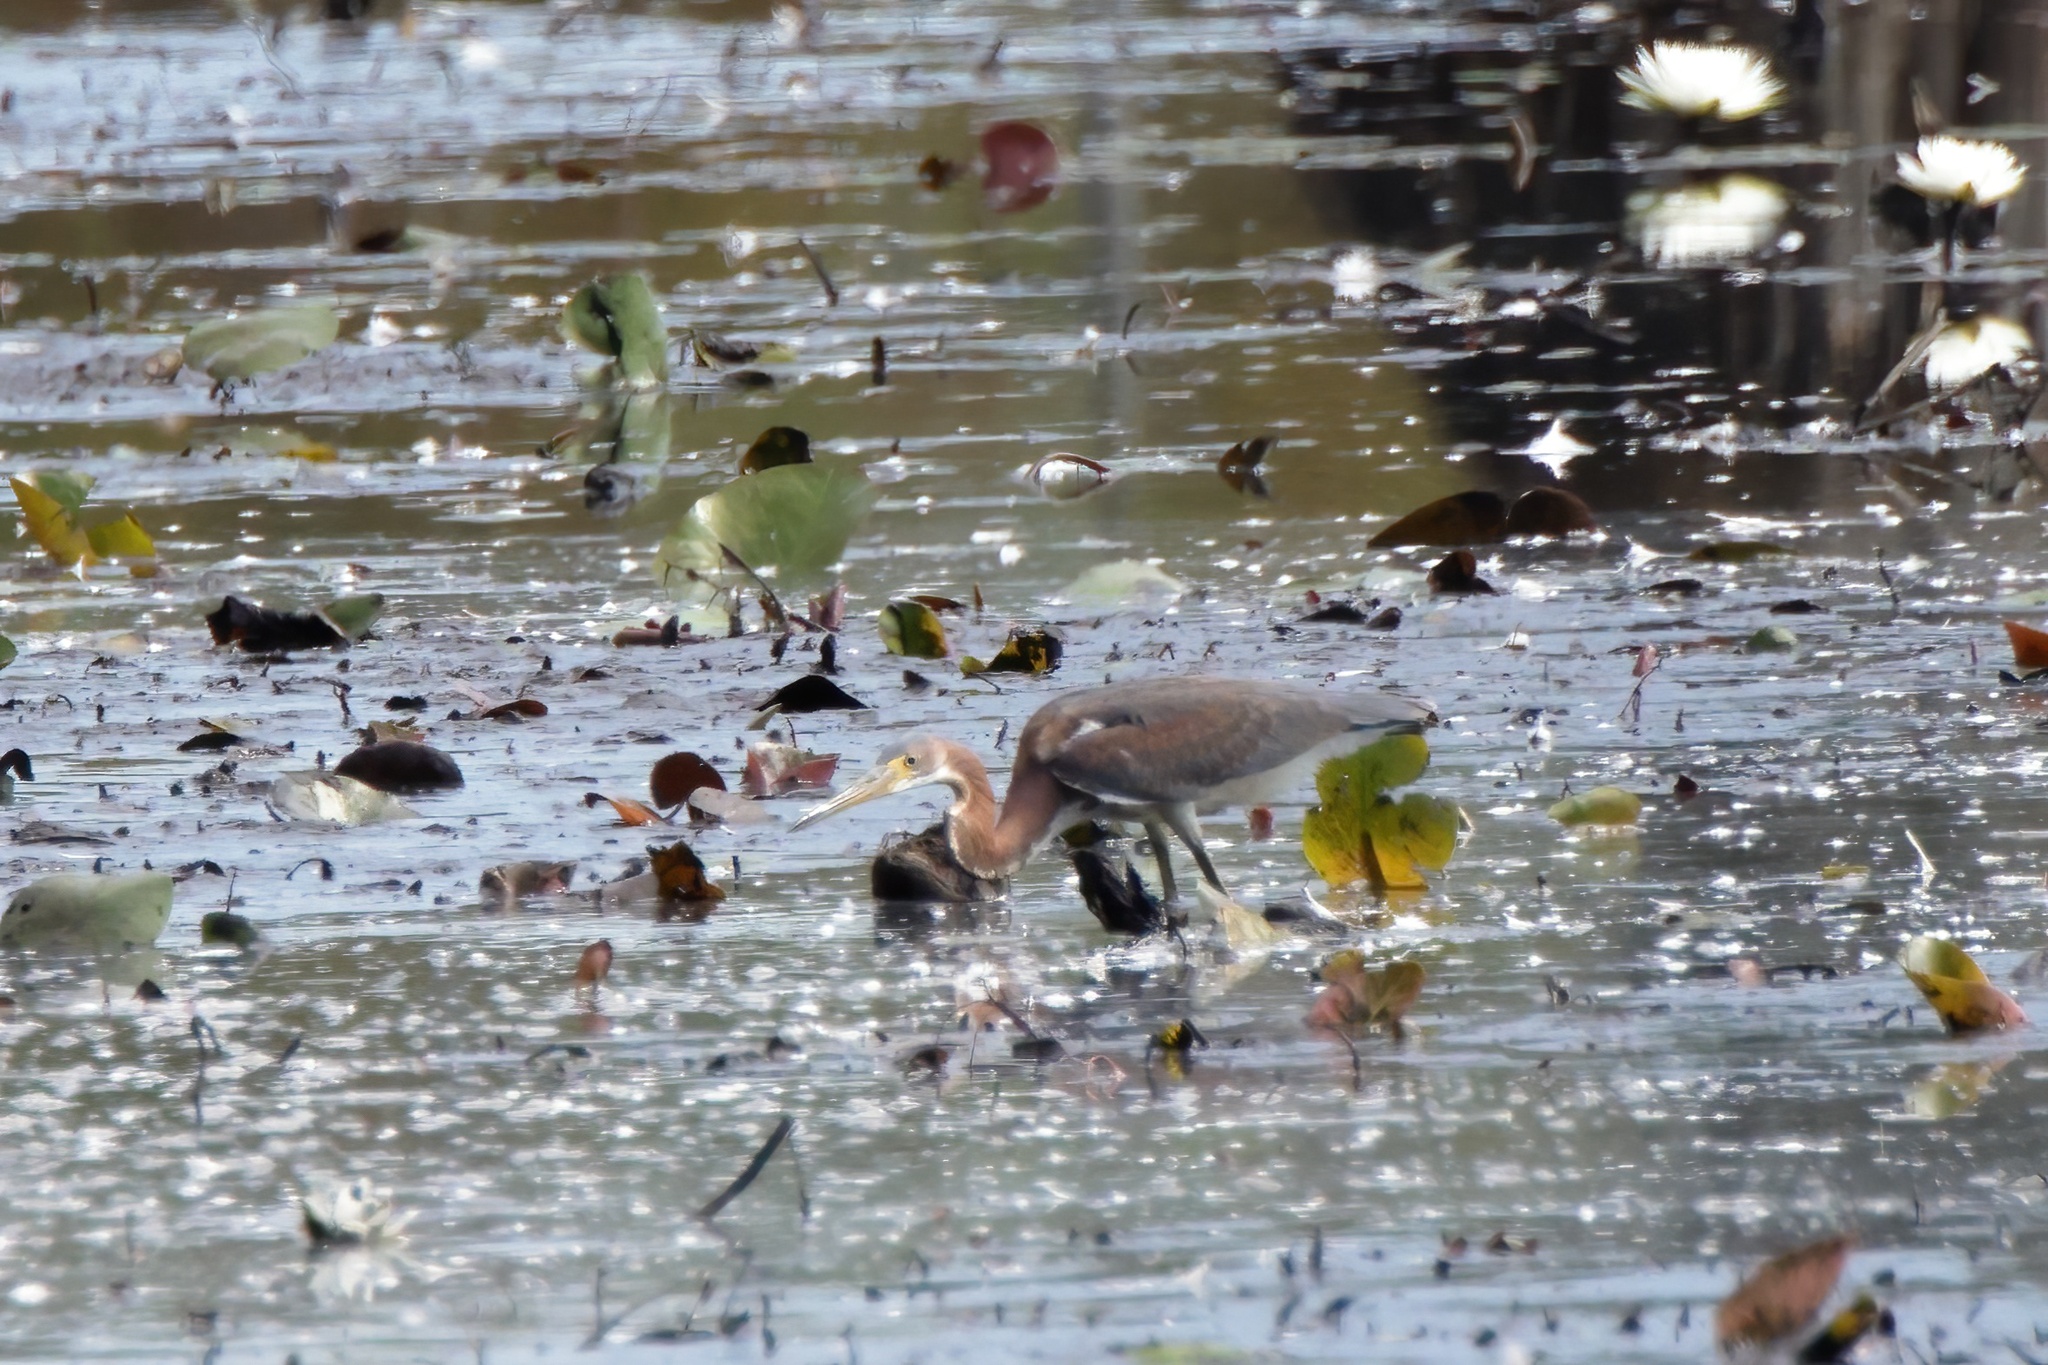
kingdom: Animalia
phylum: Chordata
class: Aves
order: Pelecaniformes
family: Ardeidae
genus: Egretta
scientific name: Egretta tricolor
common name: Tricolored heron
